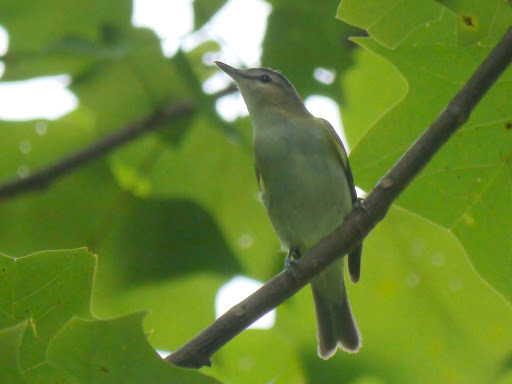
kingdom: Animalia
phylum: Chordata
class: Aves
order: Passeriformes
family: Vireonidae
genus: Vireo
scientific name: Vireo olivaceus
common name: Red-eyed vireo
